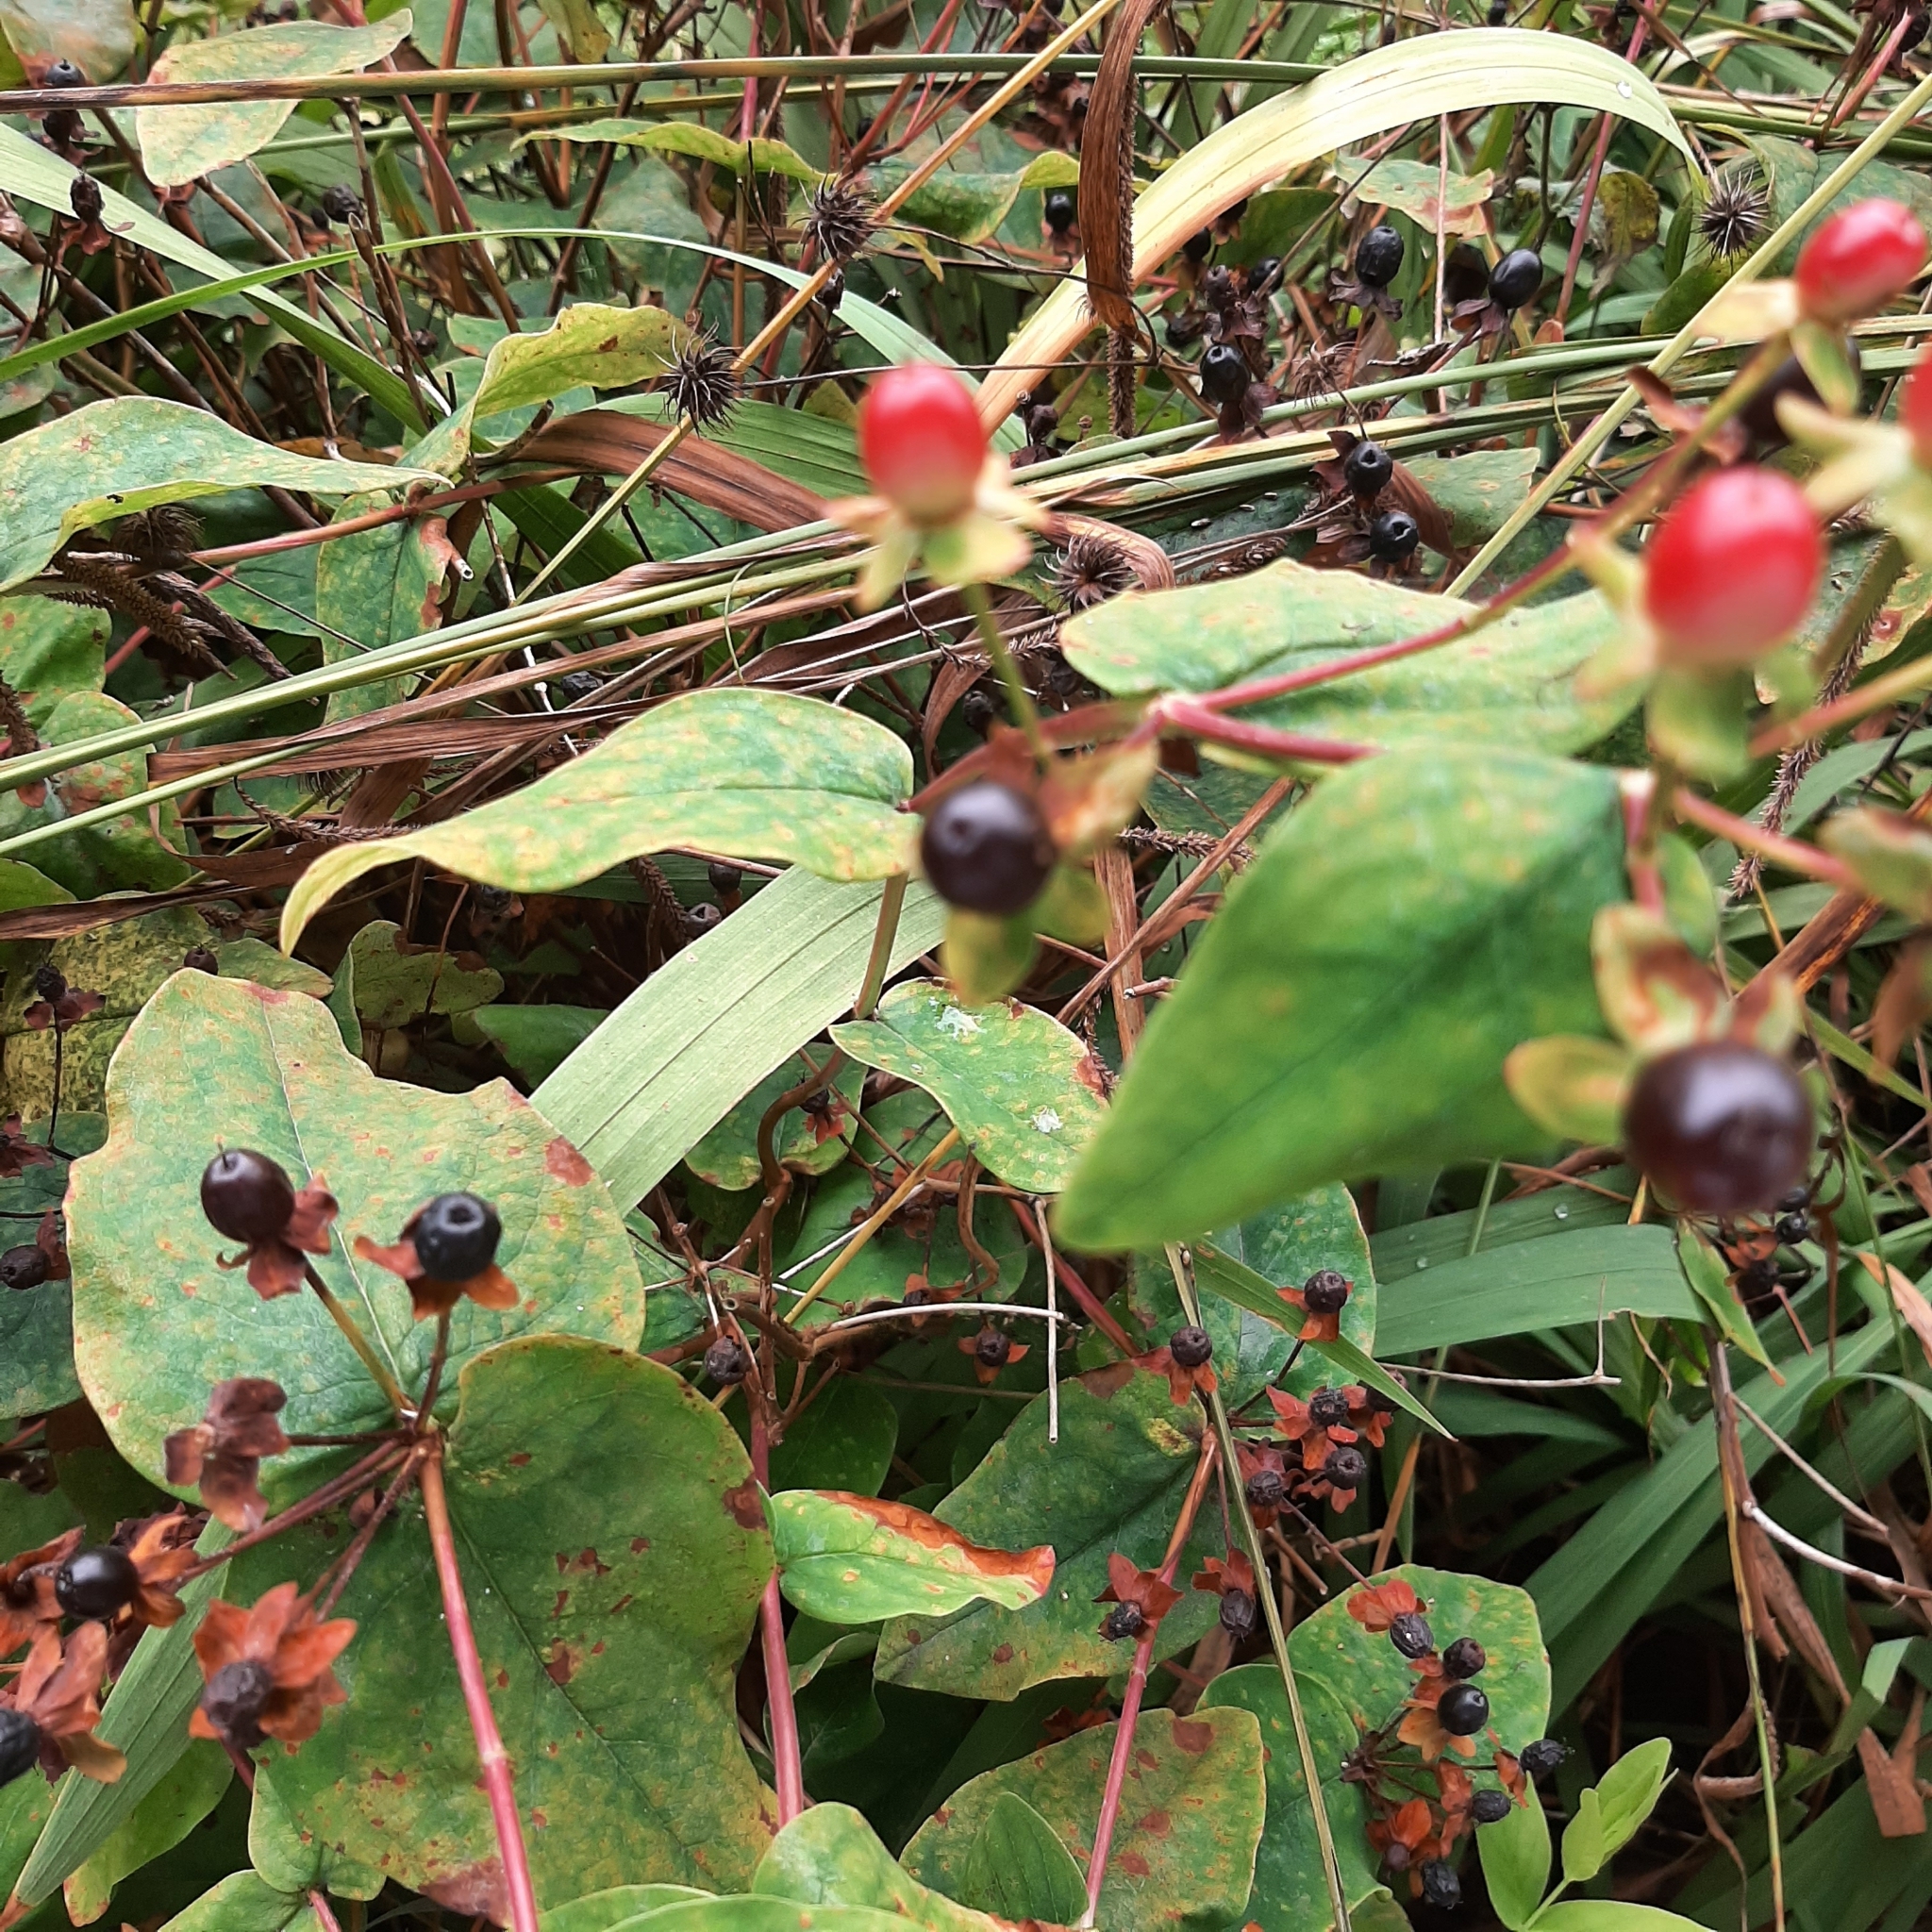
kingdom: Plantae
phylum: Tracheophyta
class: Magnoliopsida
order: Malpighiales
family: Hypericaceae
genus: Hypericum
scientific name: Hypericum androsaemum
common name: Sweet-amber
